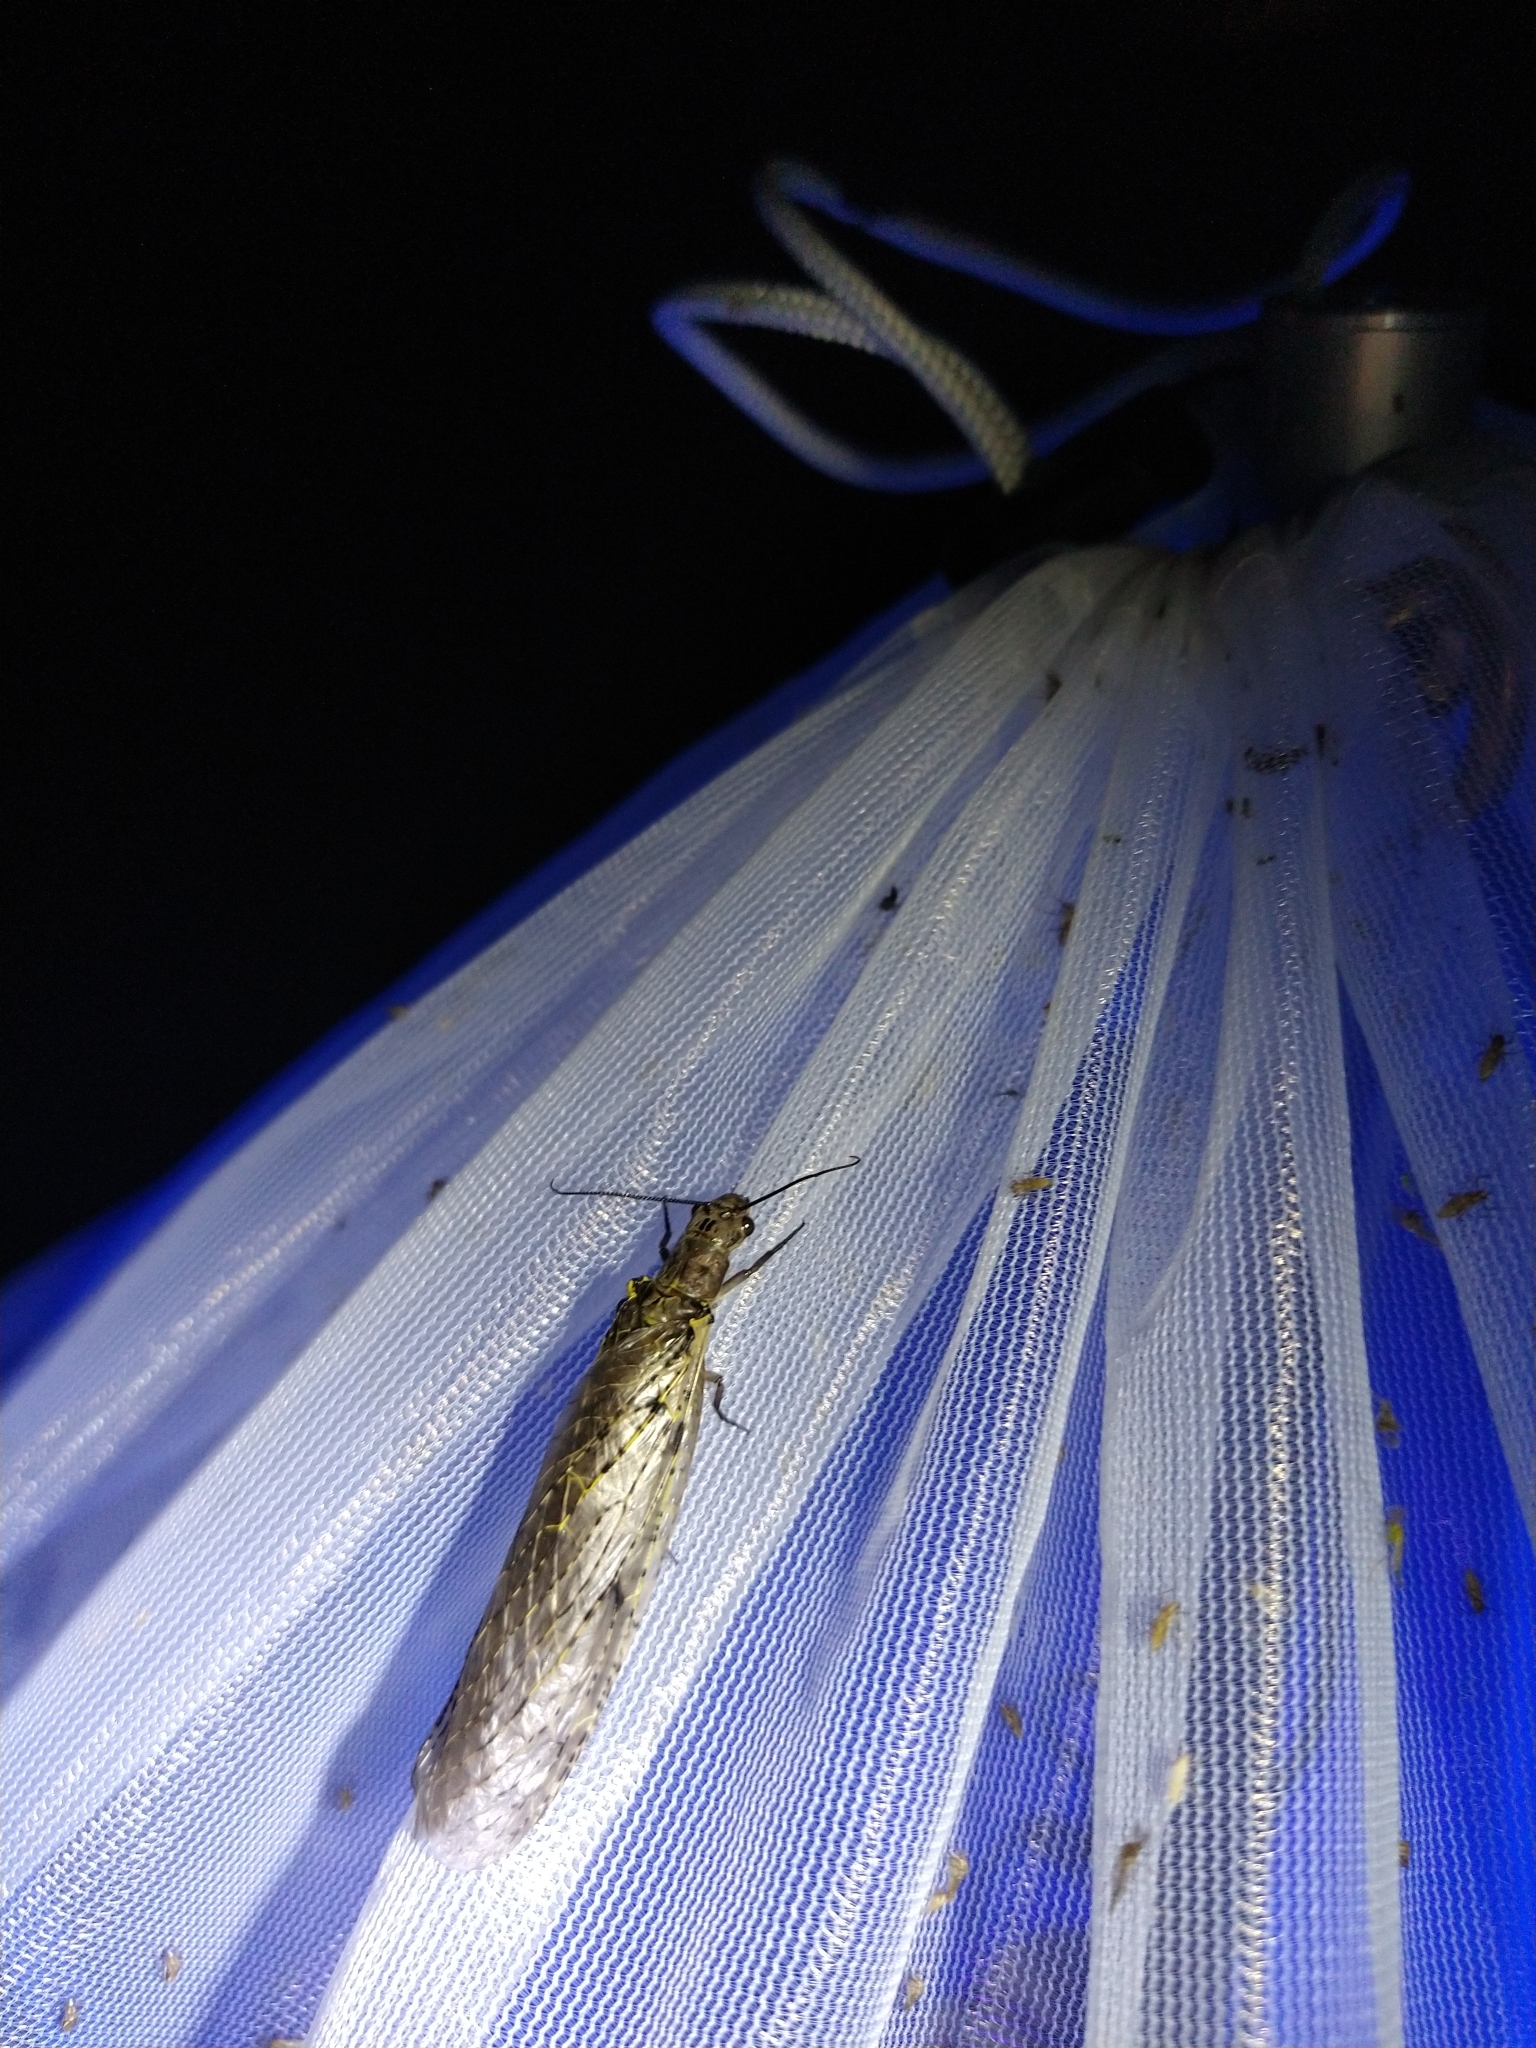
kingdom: Animalia
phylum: Arthropoda
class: Insecta
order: Megaloptera
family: Corydalidae
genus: Chauliodes
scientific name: Chauliodes rastricornis
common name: Spring fishfly
